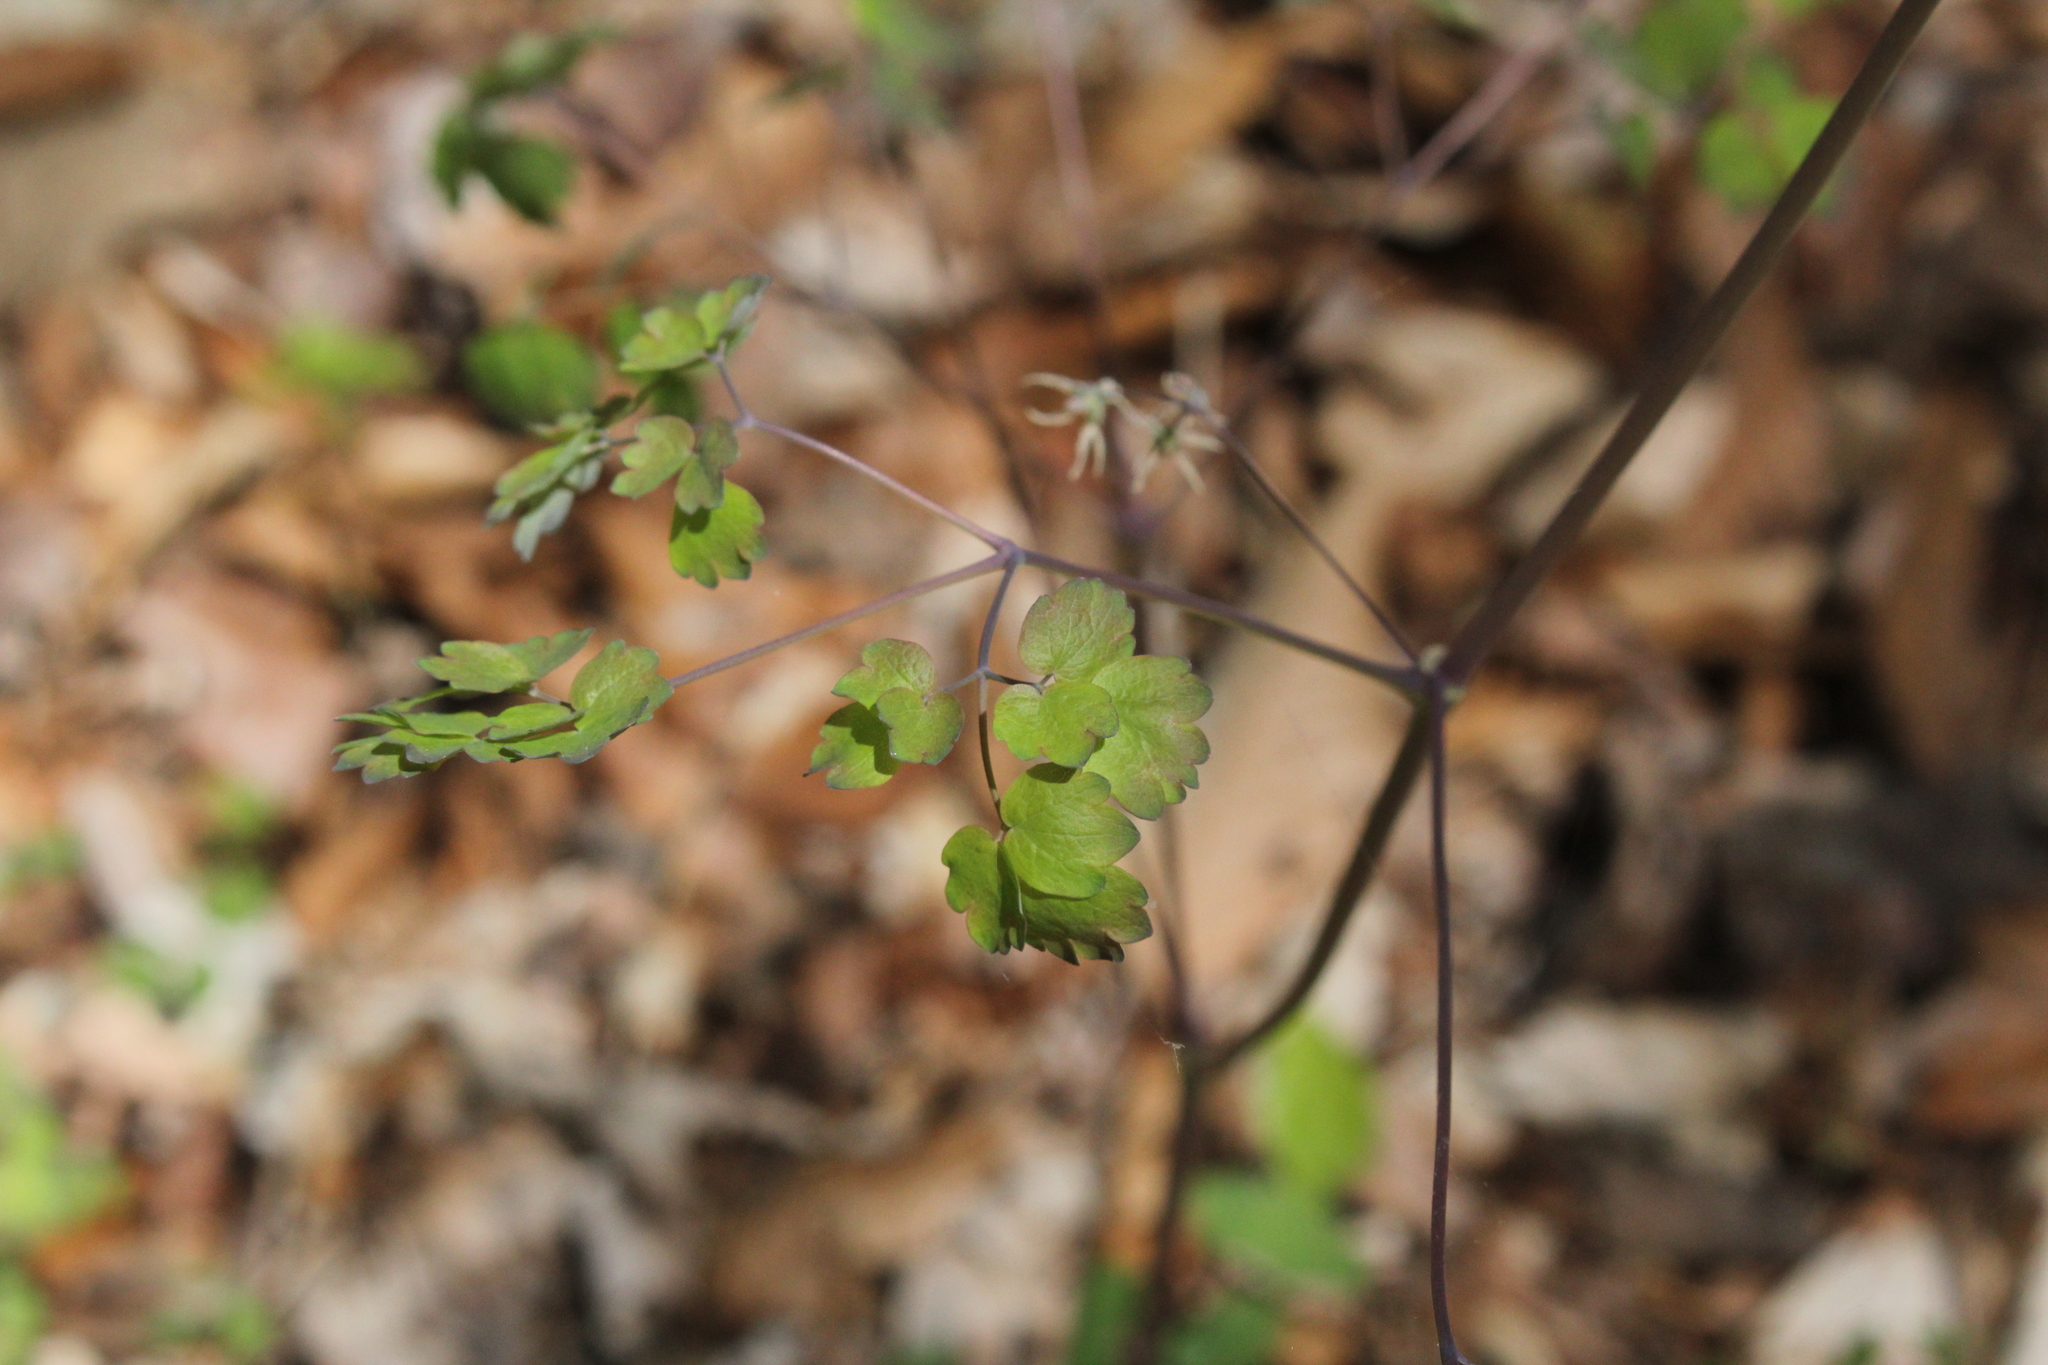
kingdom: Plantae
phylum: Tracheophyta
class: Magnoliopsida
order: Ranunculales
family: Ranunculaceae
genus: Thalictrum
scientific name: Thalictrum dioicum
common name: Early meadow-rue
